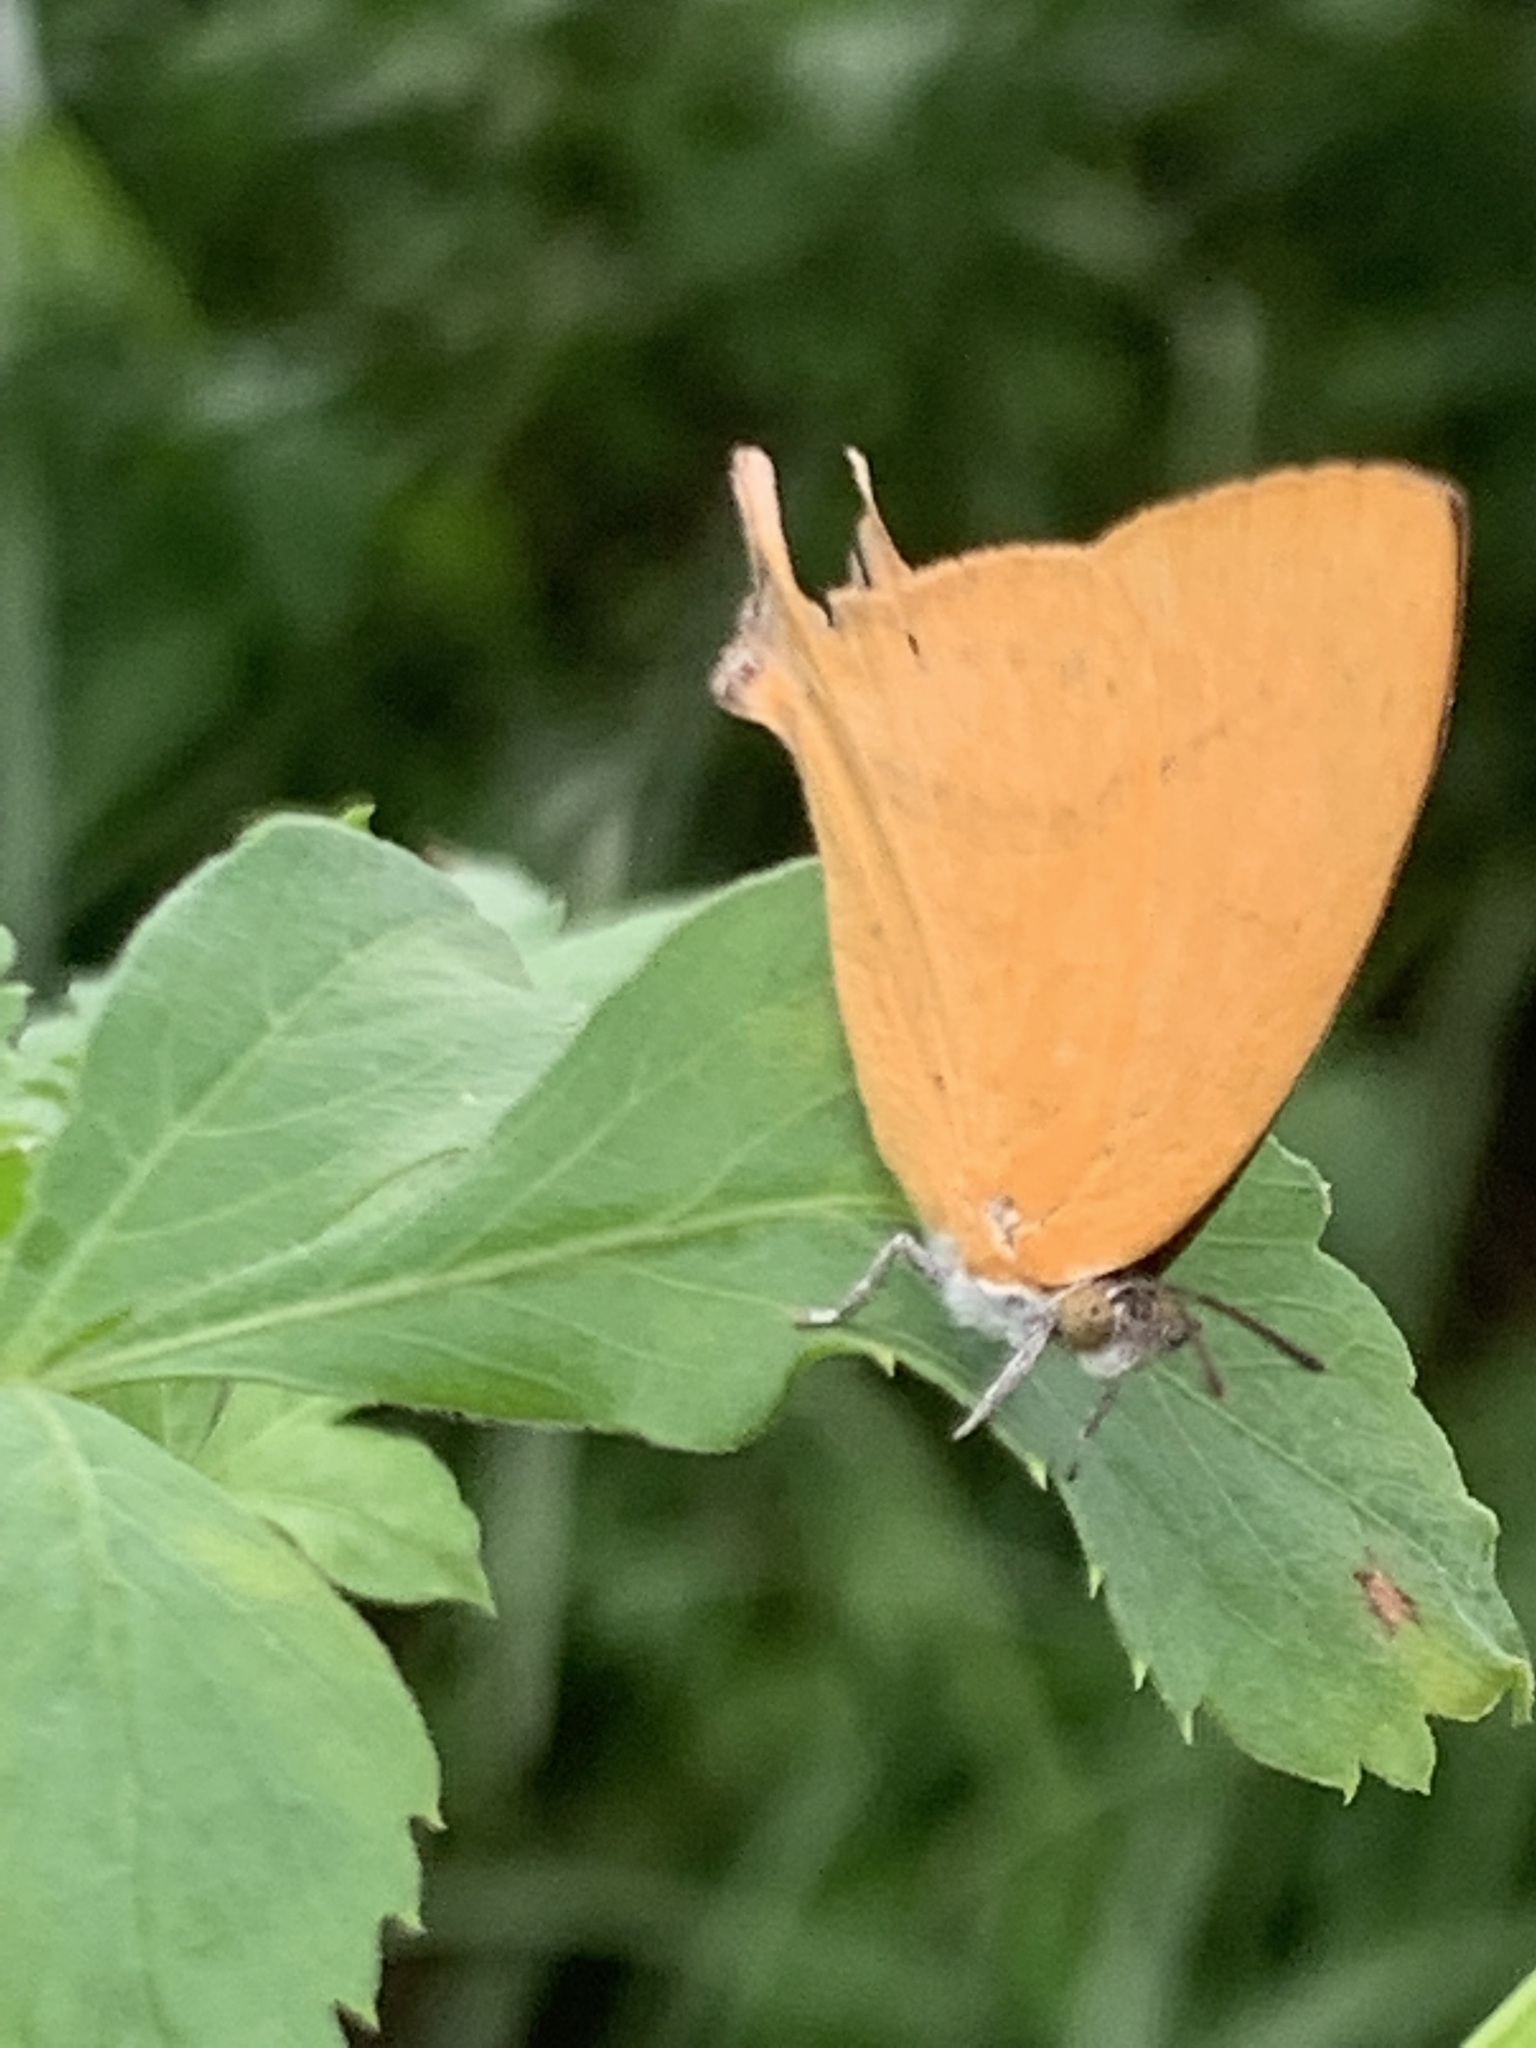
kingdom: Animalia
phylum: Arthropoda
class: Insecta
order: Lepidoptera
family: Lycaenidae
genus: Loxura
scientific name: Loxura atymnus
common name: Common yamfly
